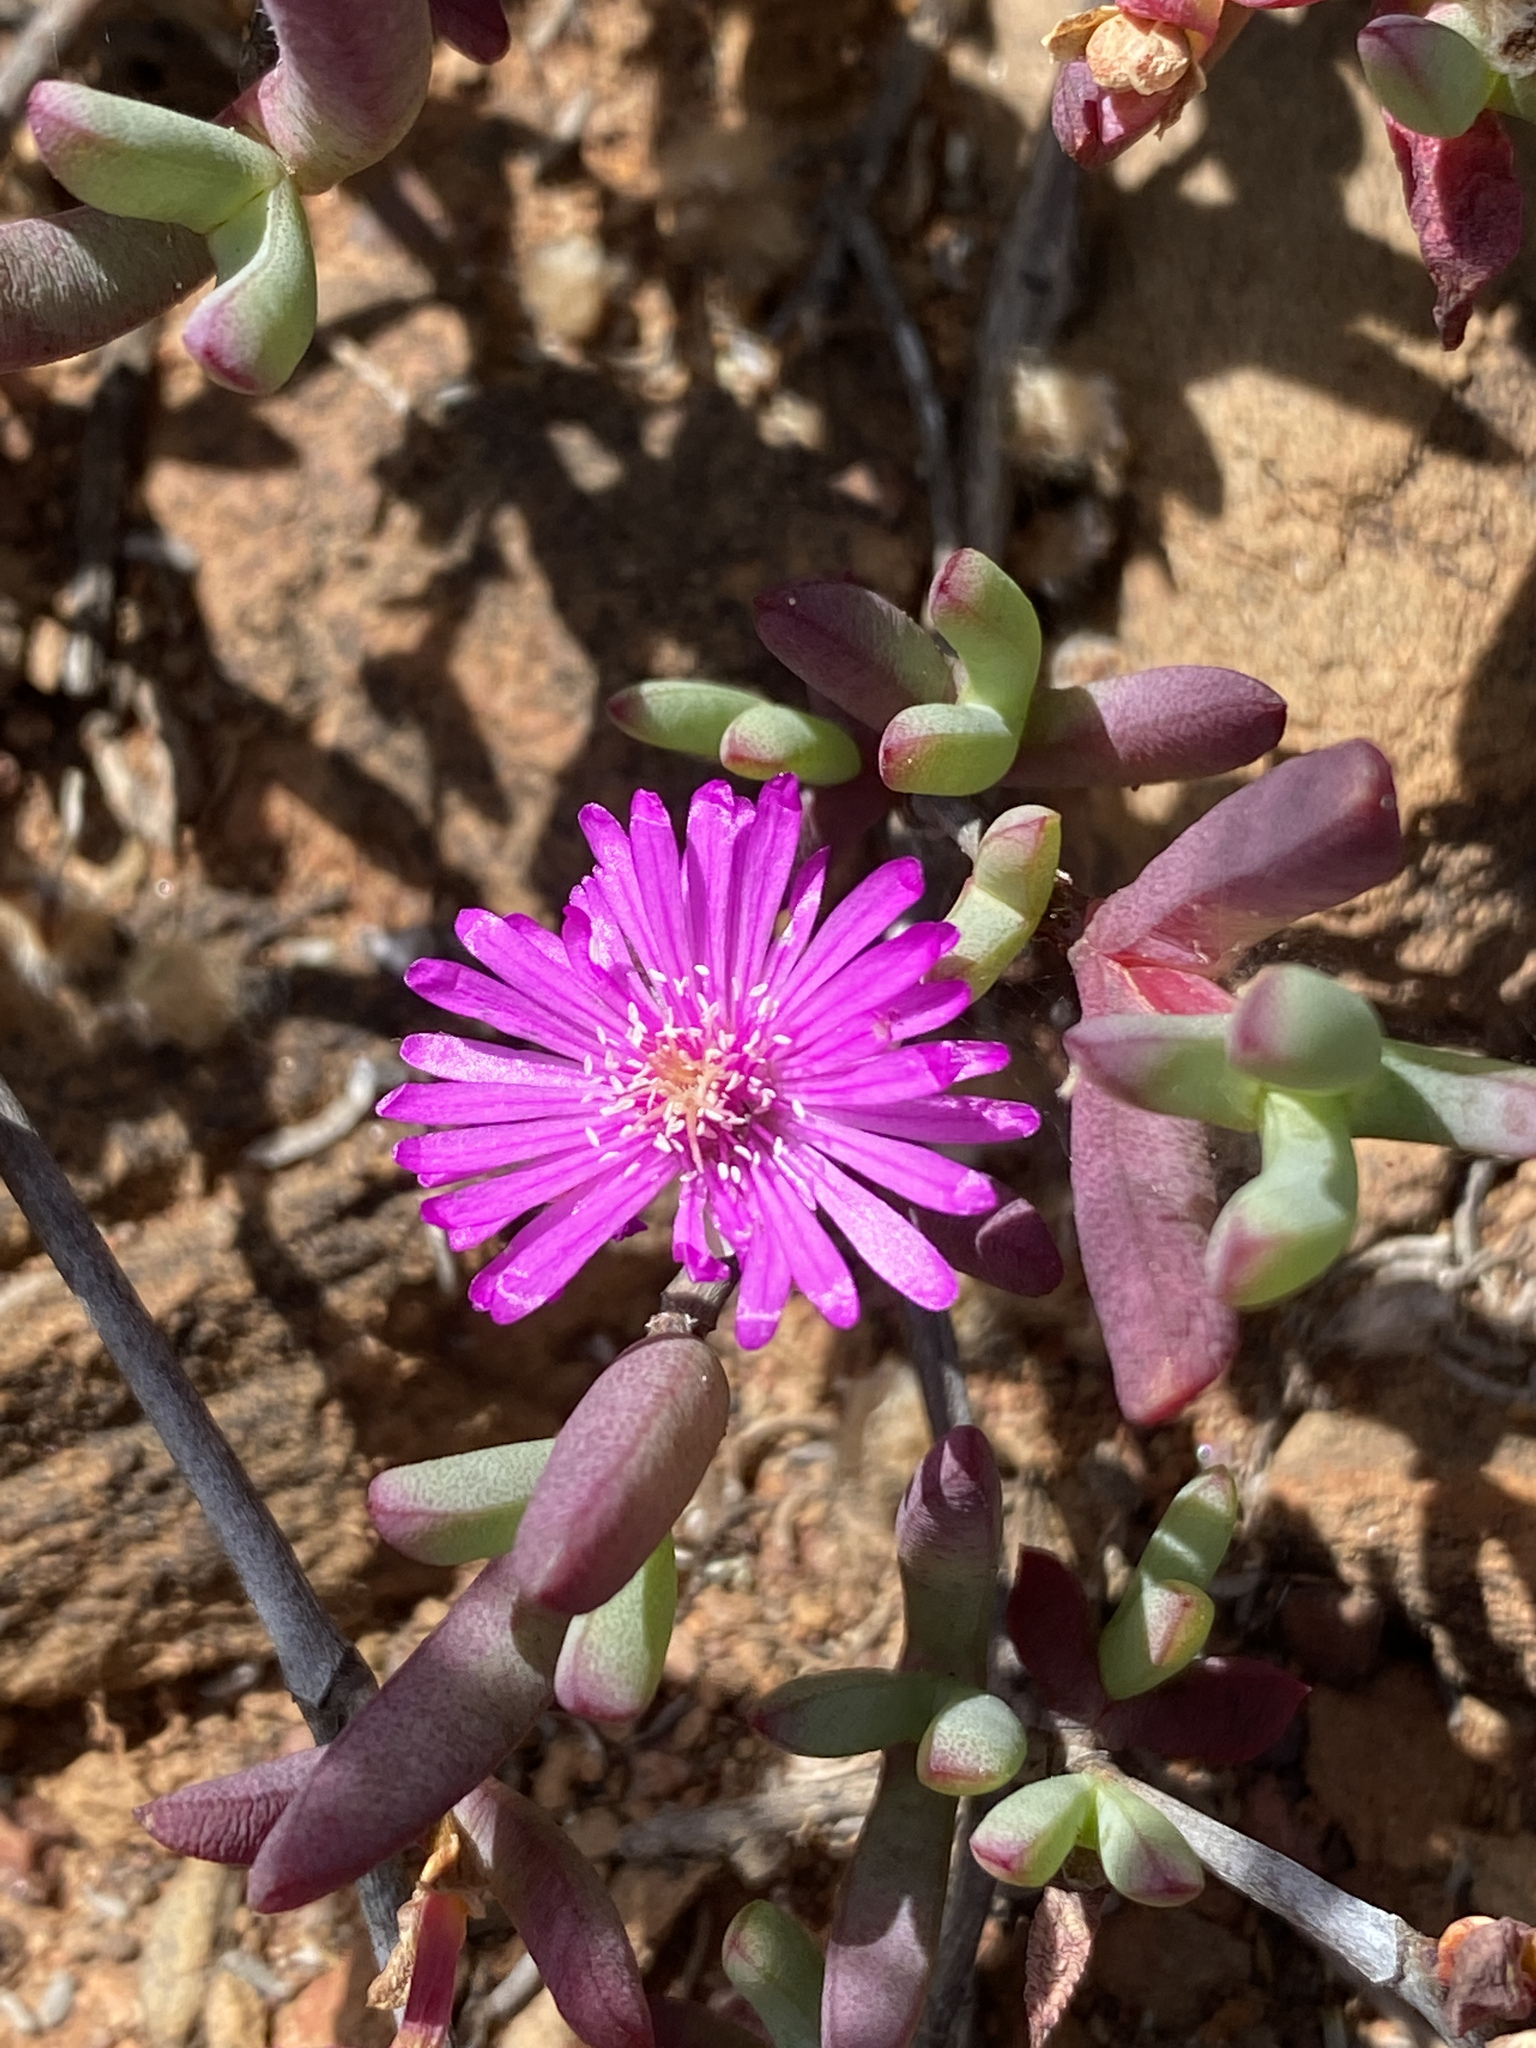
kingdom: Plantae
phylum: Tracheophyta
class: Magnoliopsida
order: Caryophyllales
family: Aizoaceae
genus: Leipoldtia
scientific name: Leipoldtia schultzei
